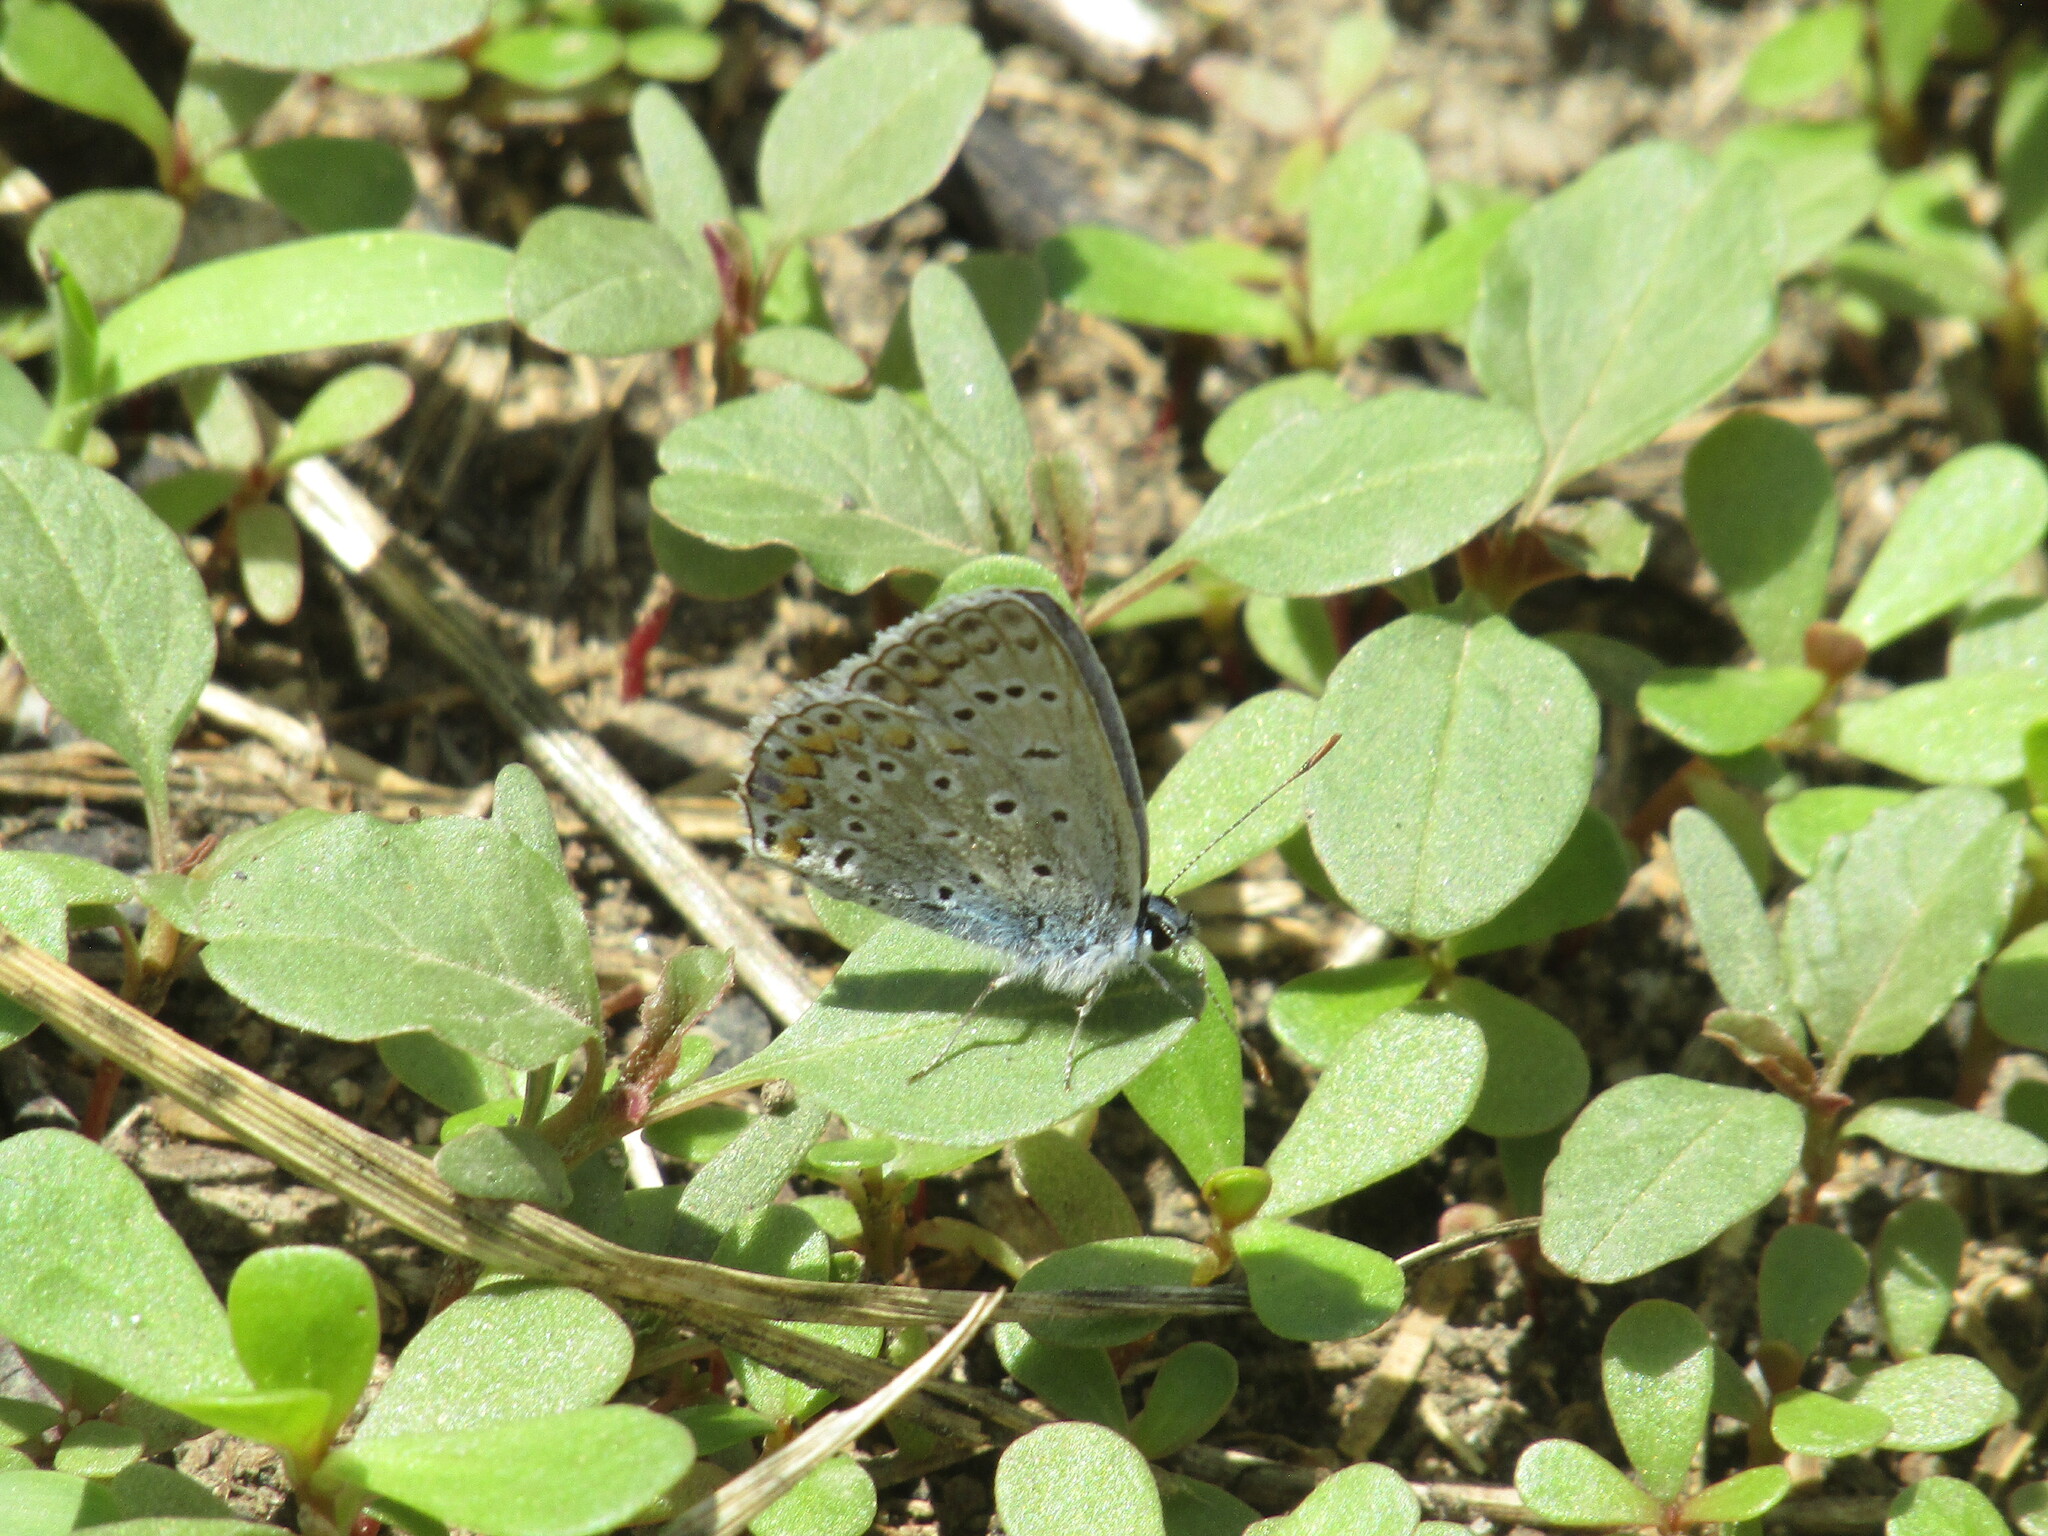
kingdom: Animalia
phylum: Arthropoda
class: Insecta
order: Lepidoptera
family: Lycaenidae
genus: Polyommatus
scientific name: Polyommatus icarus
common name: Common blue
